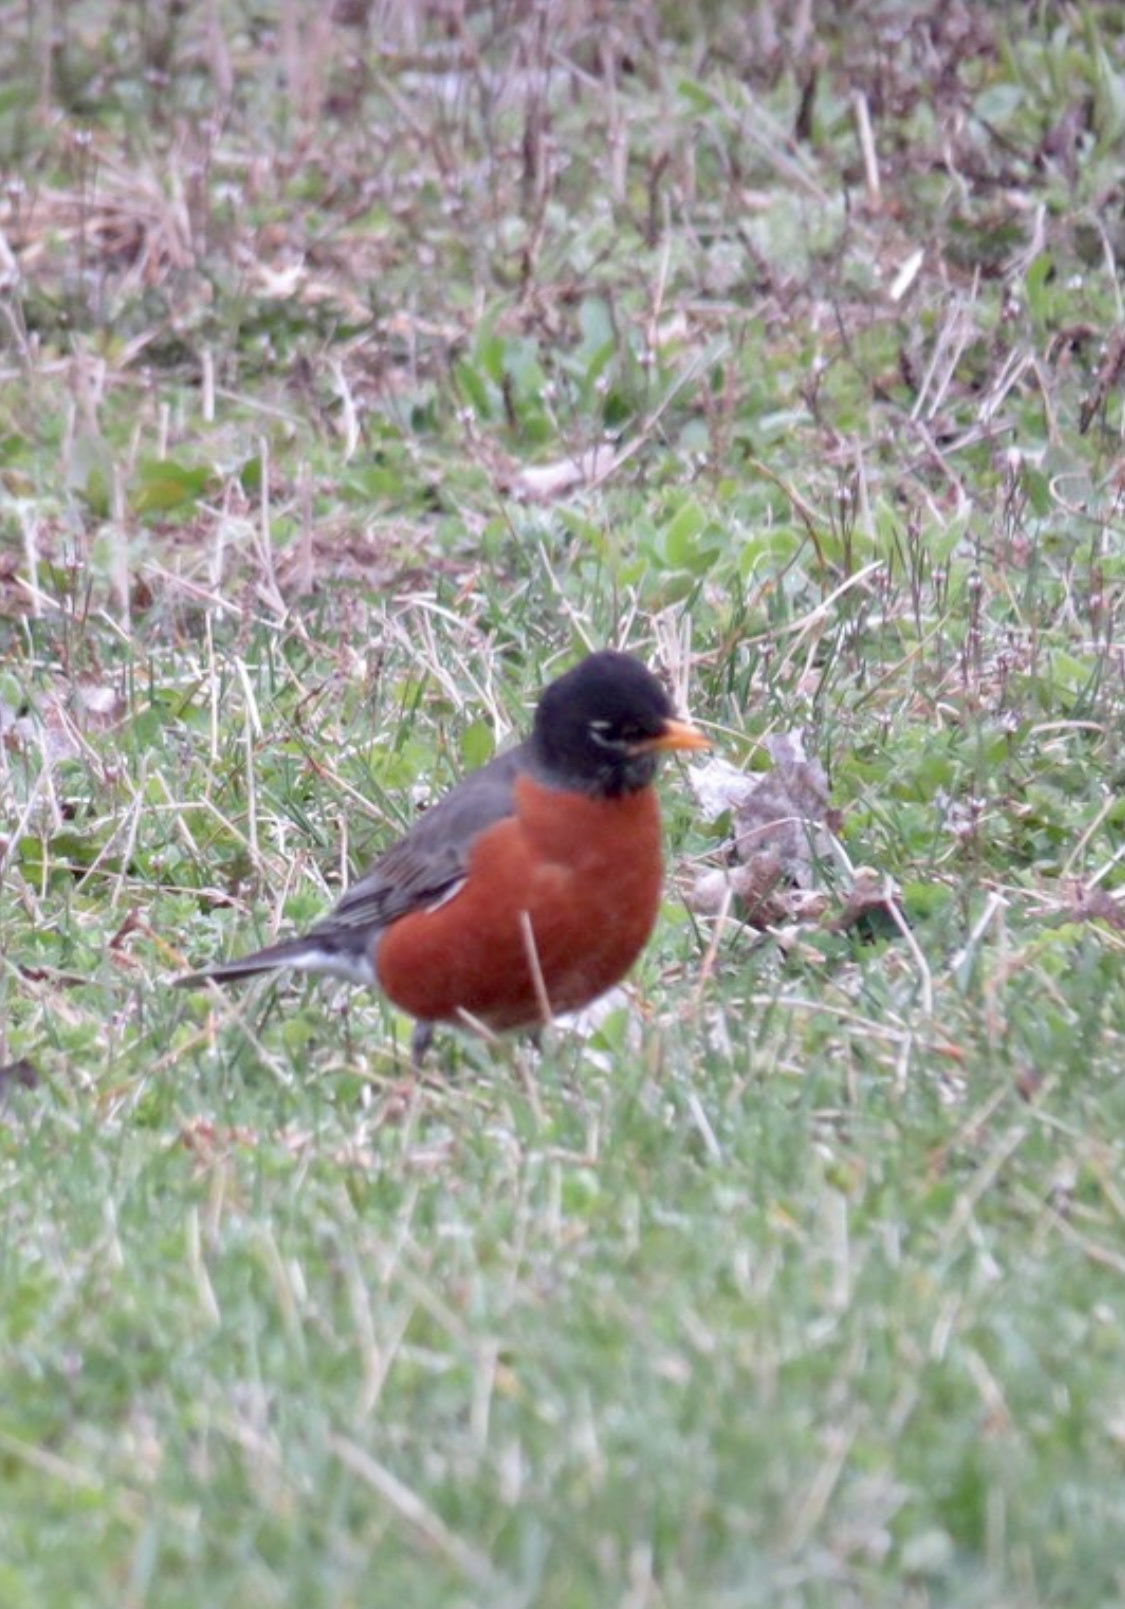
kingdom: Animalia
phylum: Chordata
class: Aves
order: Passeriformes
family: Turdidae
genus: Turdus
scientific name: Turdus migratorius
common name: American robin
